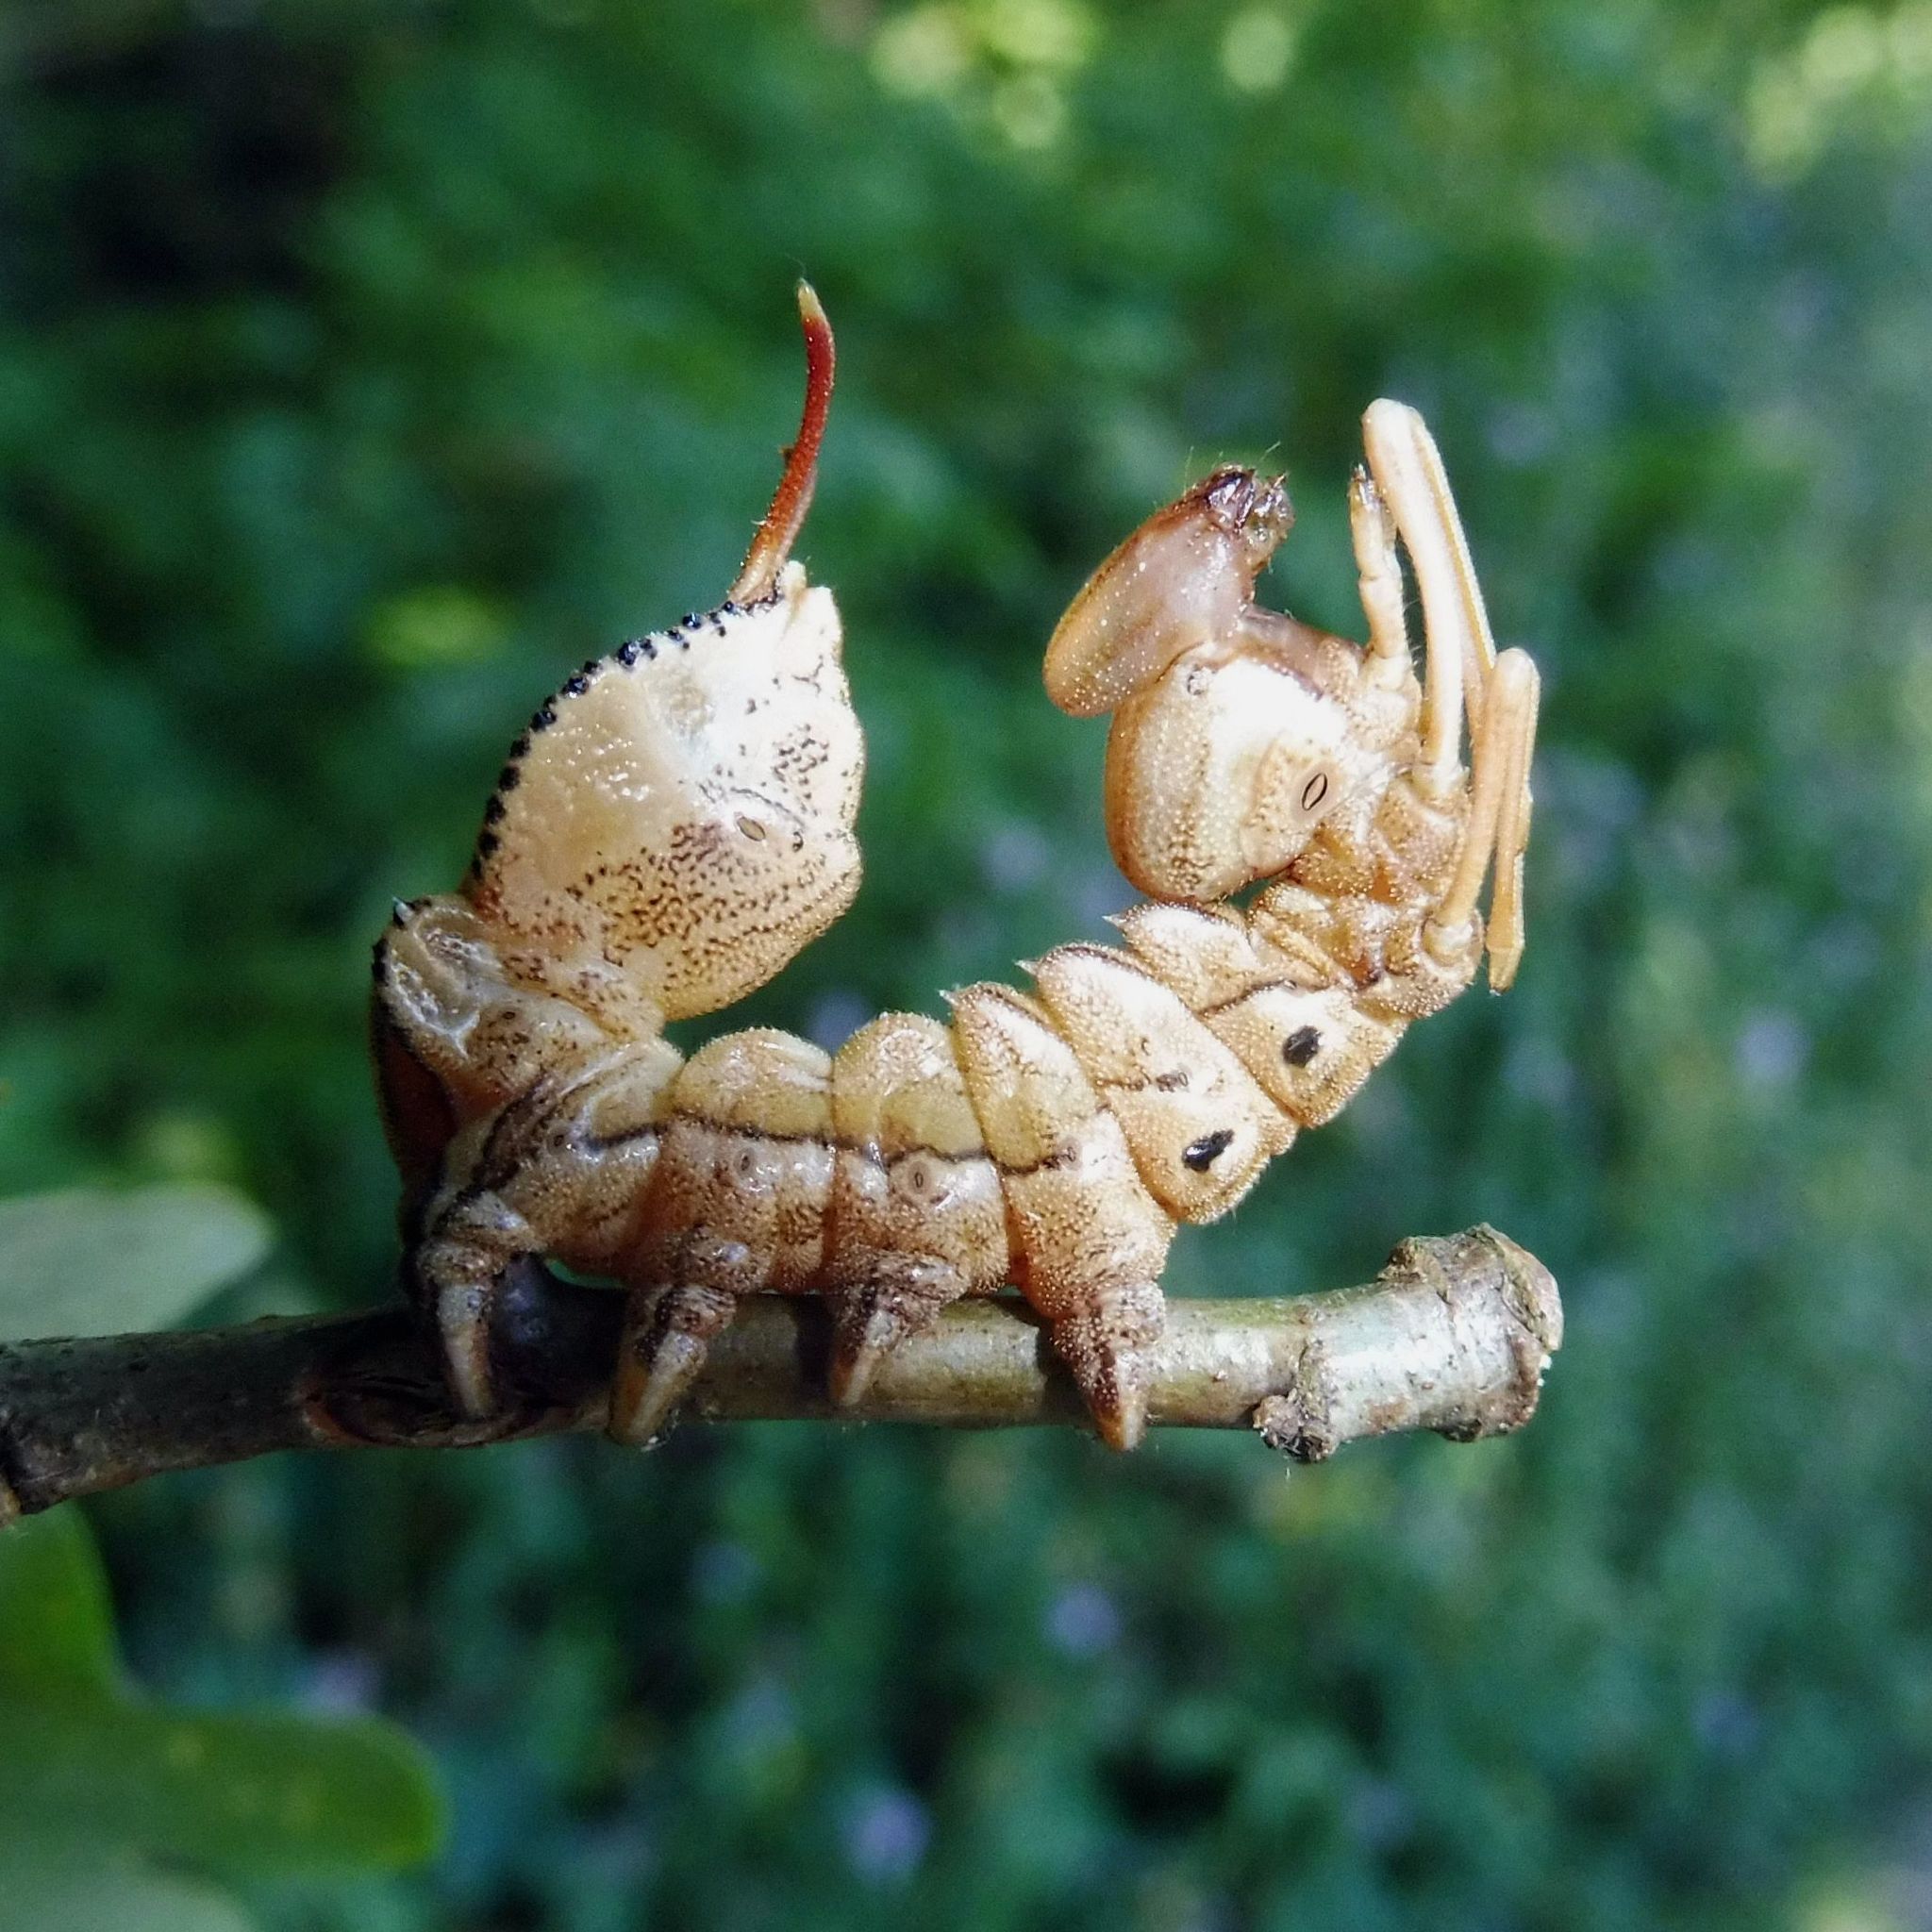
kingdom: Animalia
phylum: Arthropoda
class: Insecta
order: Lepidoptera
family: Notodontidae
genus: Stauropus
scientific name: Stauropus fagi
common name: Lobster moth
